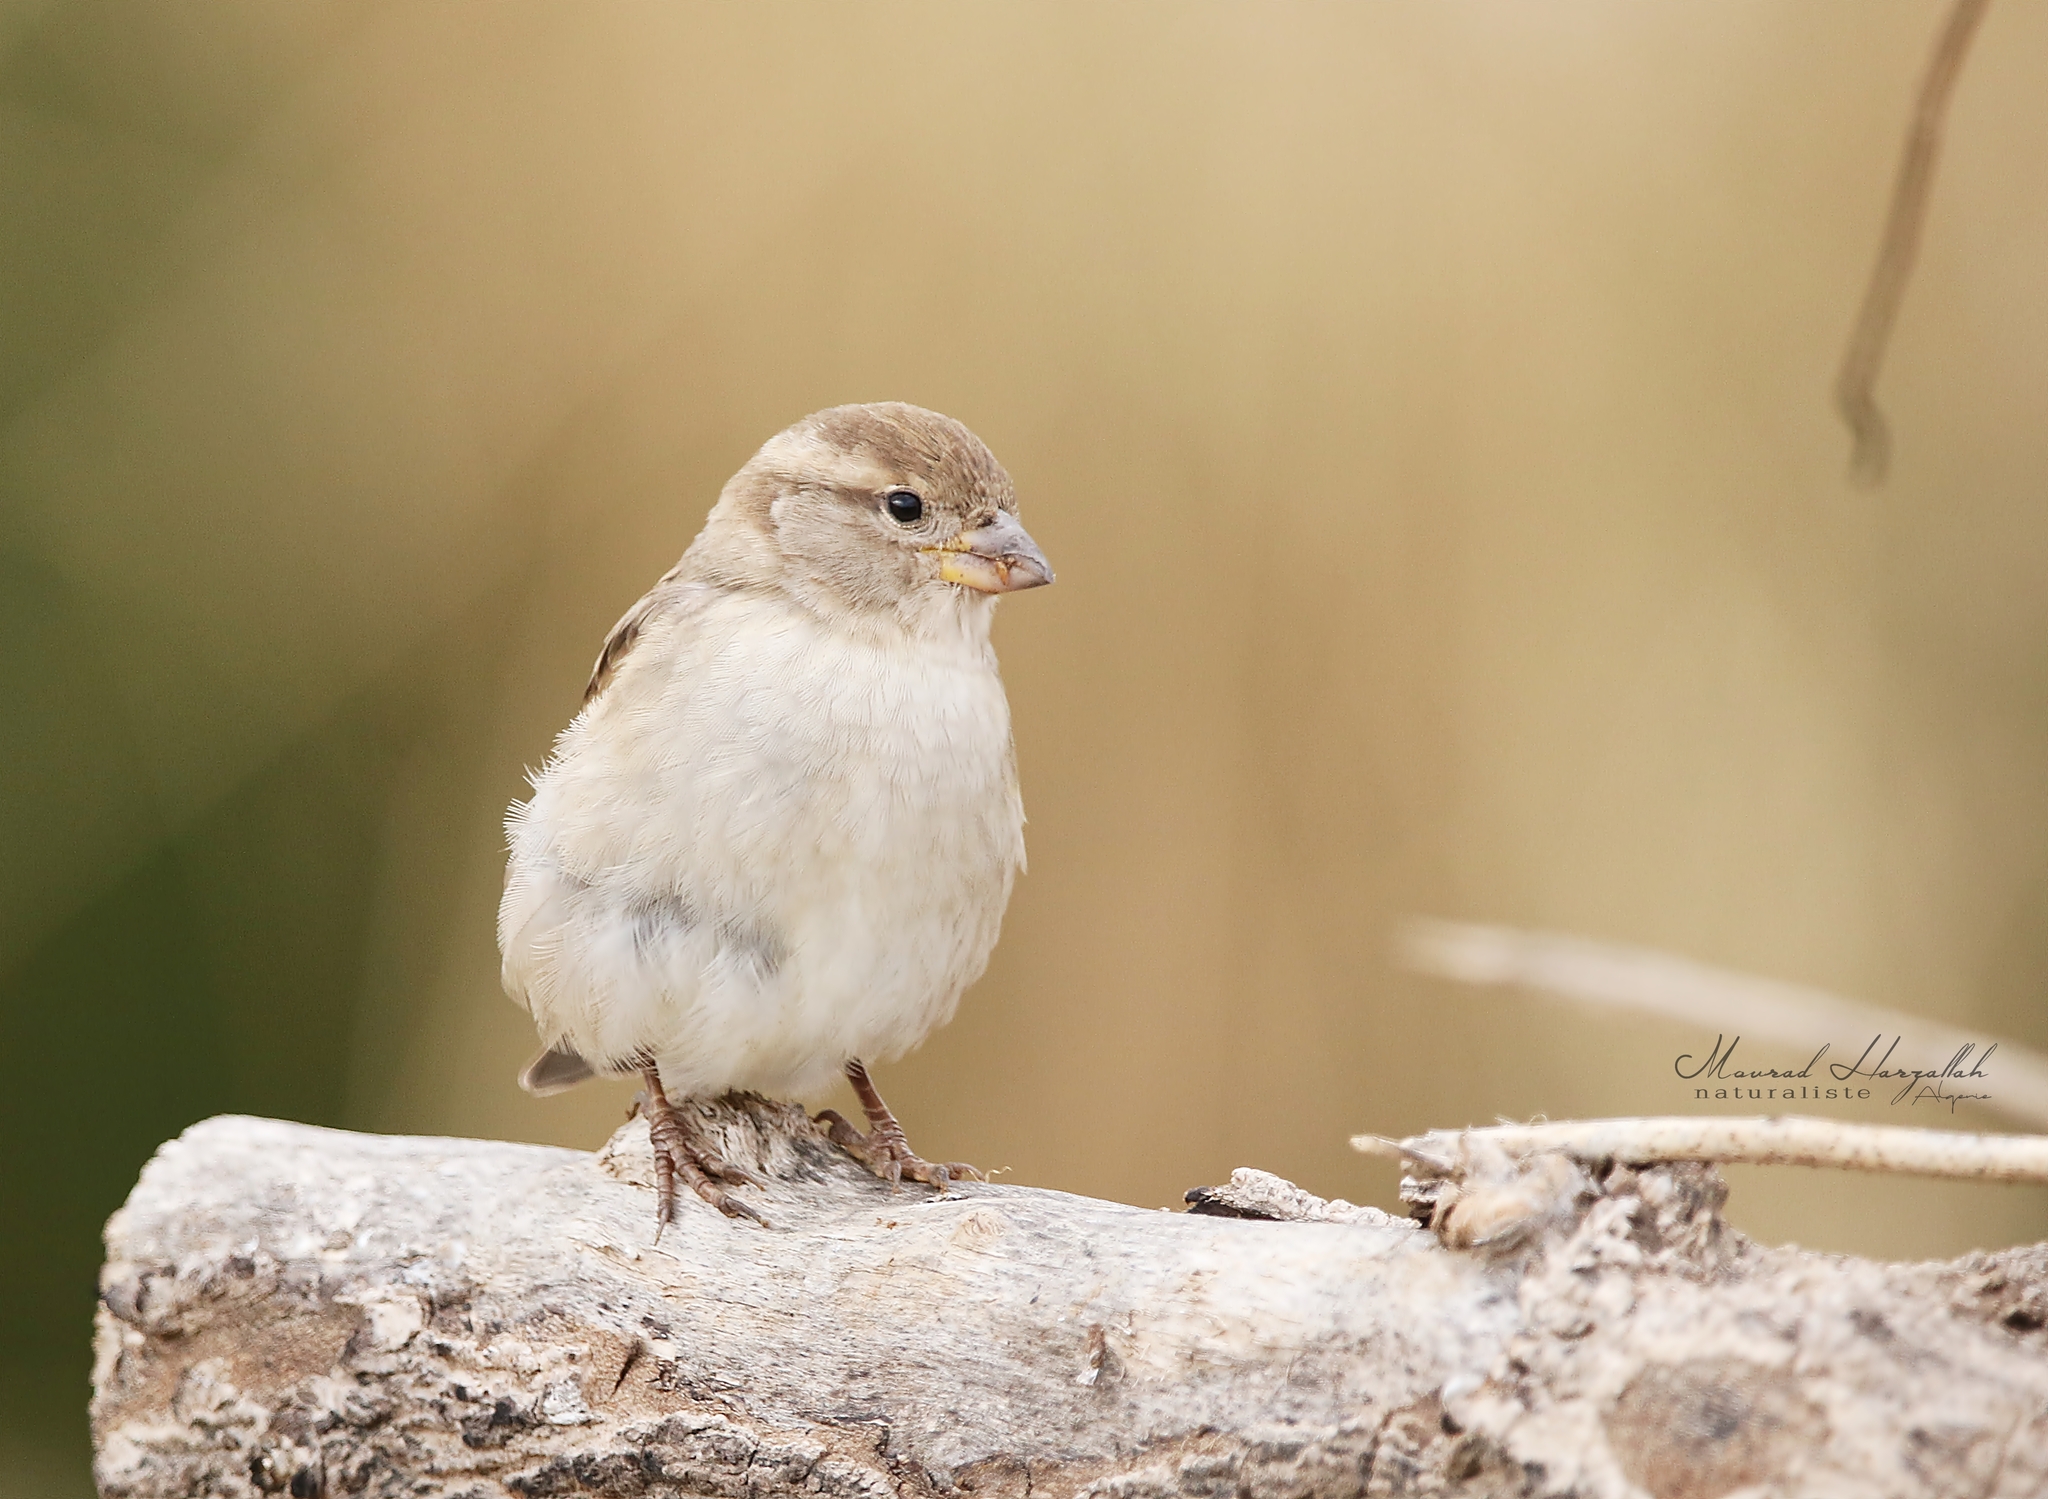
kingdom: Animalia
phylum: Chordata
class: Aves
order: Passeriformes
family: Passeridae
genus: Passer
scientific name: Passer hispaniolensis
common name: Spanish sparrow
